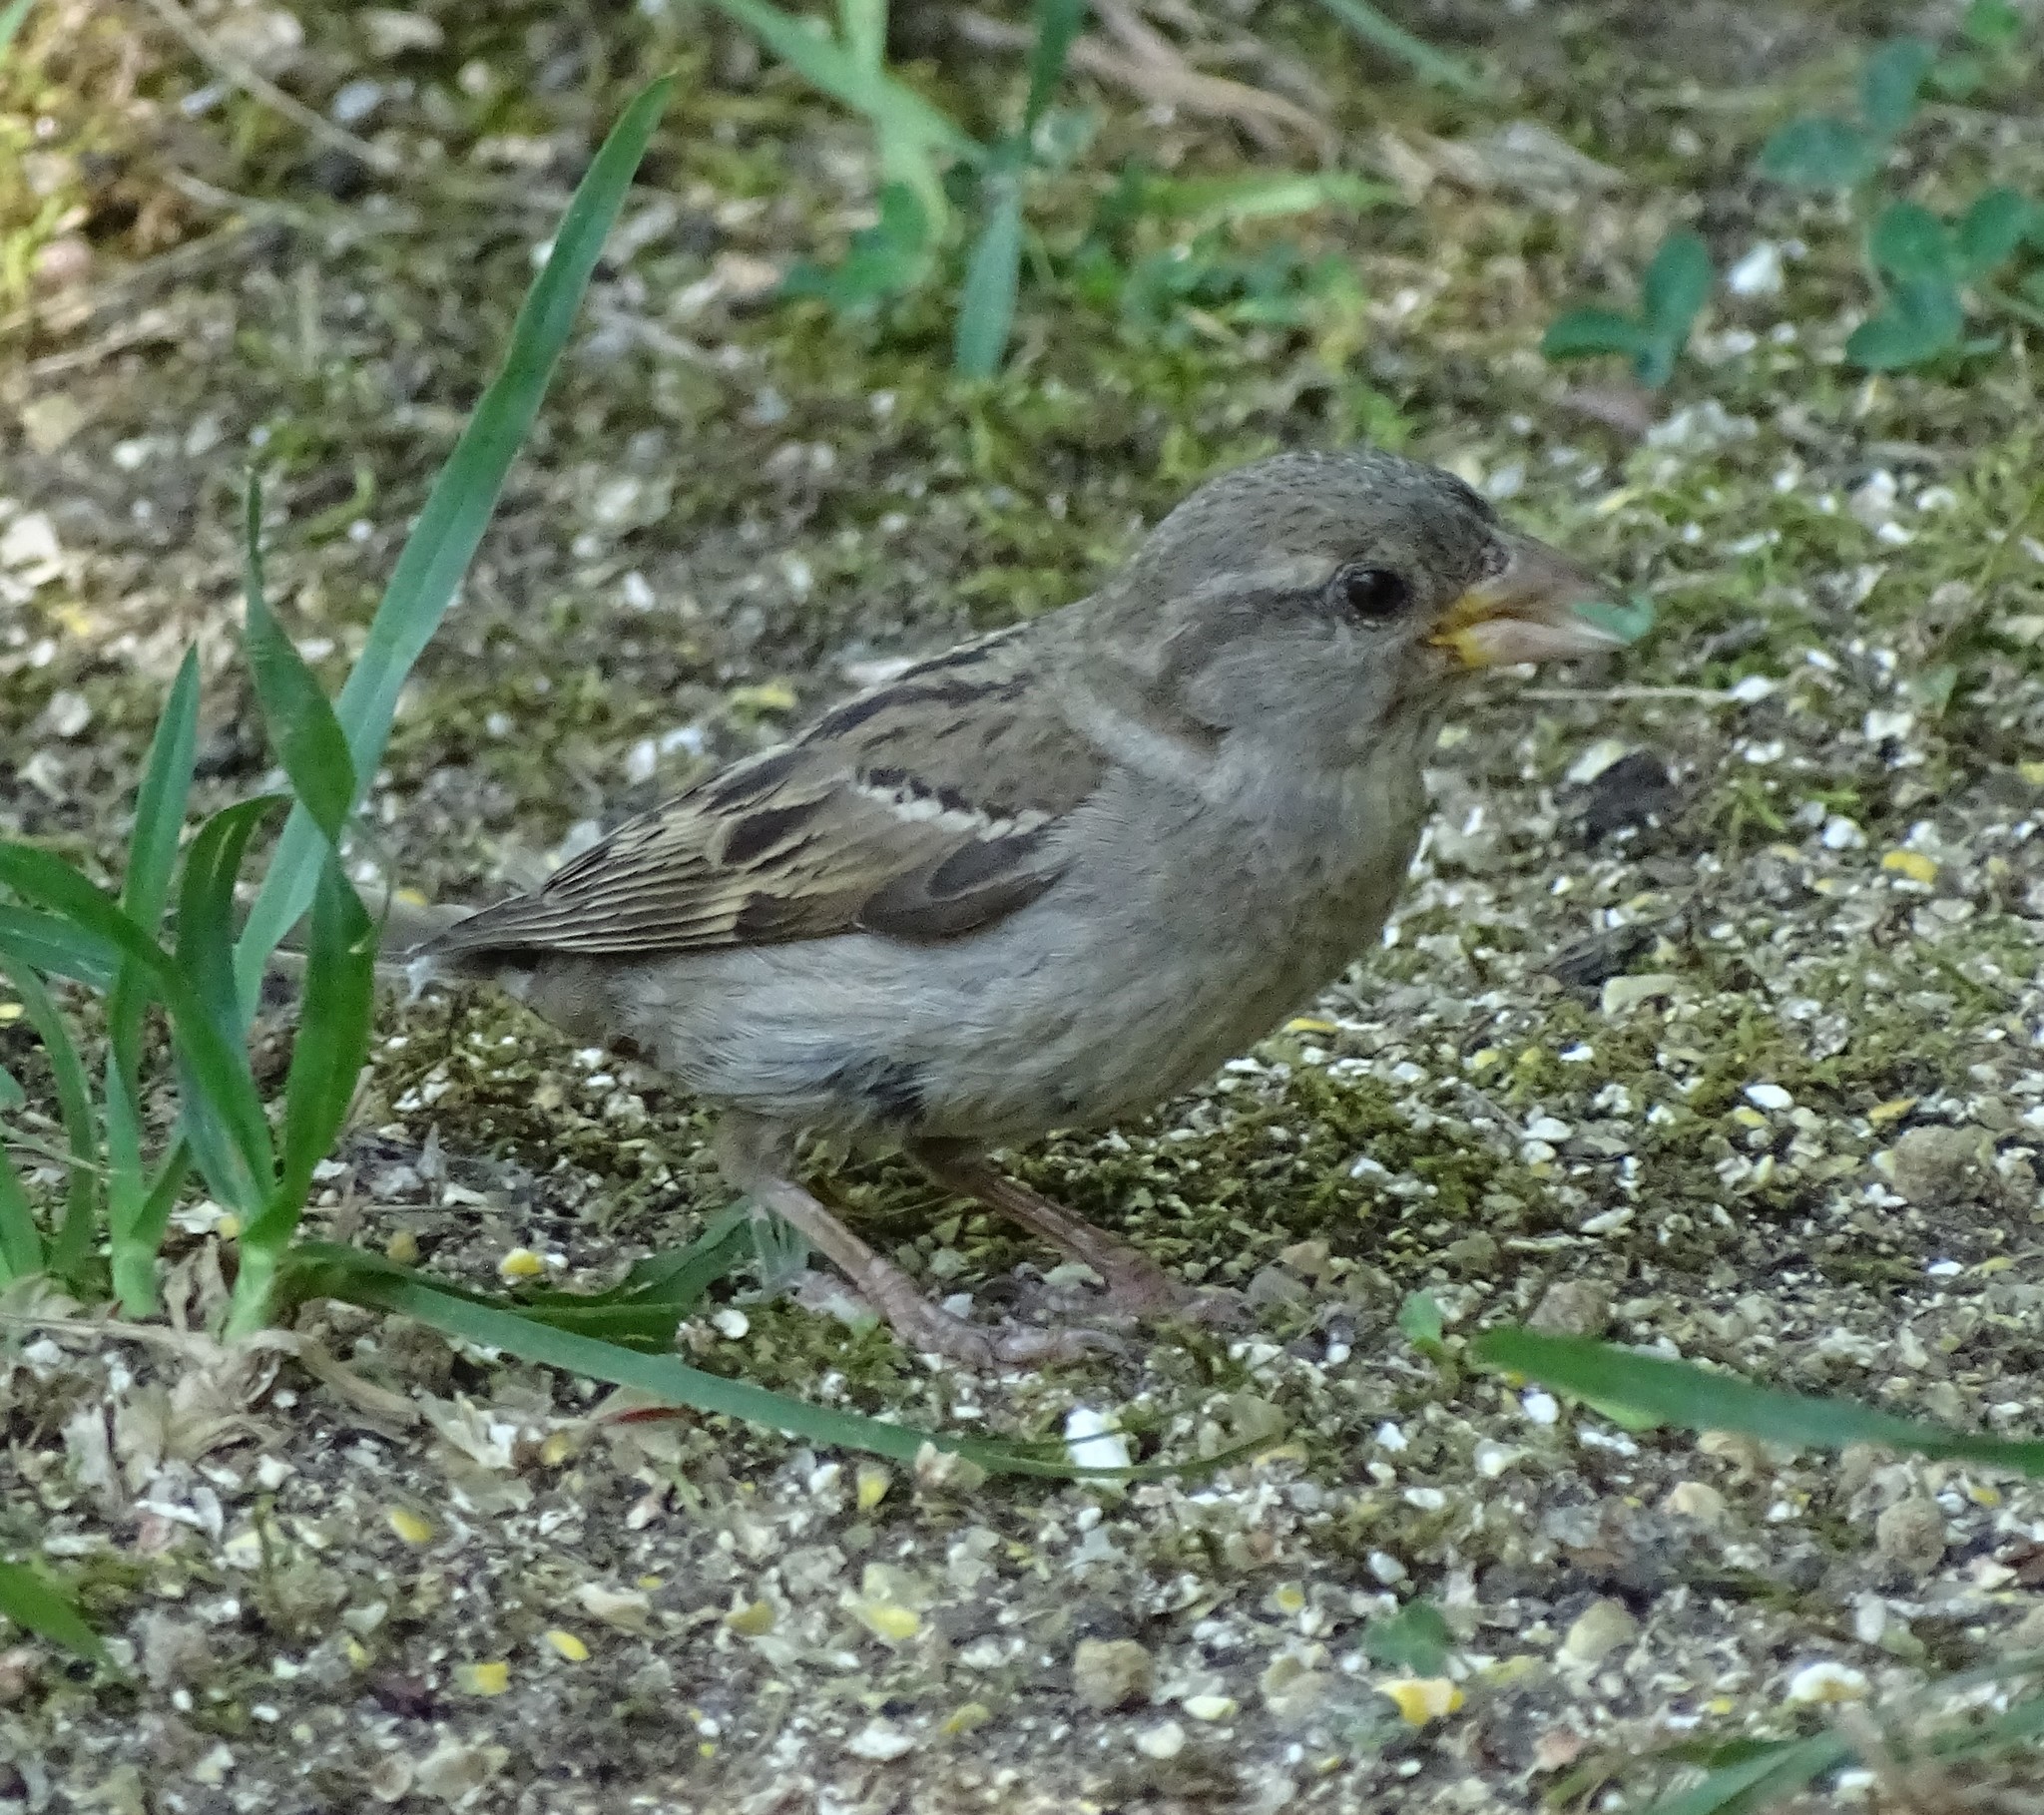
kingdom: Animalia
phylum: Chordata
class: Aves
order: Passeriformes
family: Passeridae
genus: Passer
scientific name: Passer domesticus
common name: House sparrow
